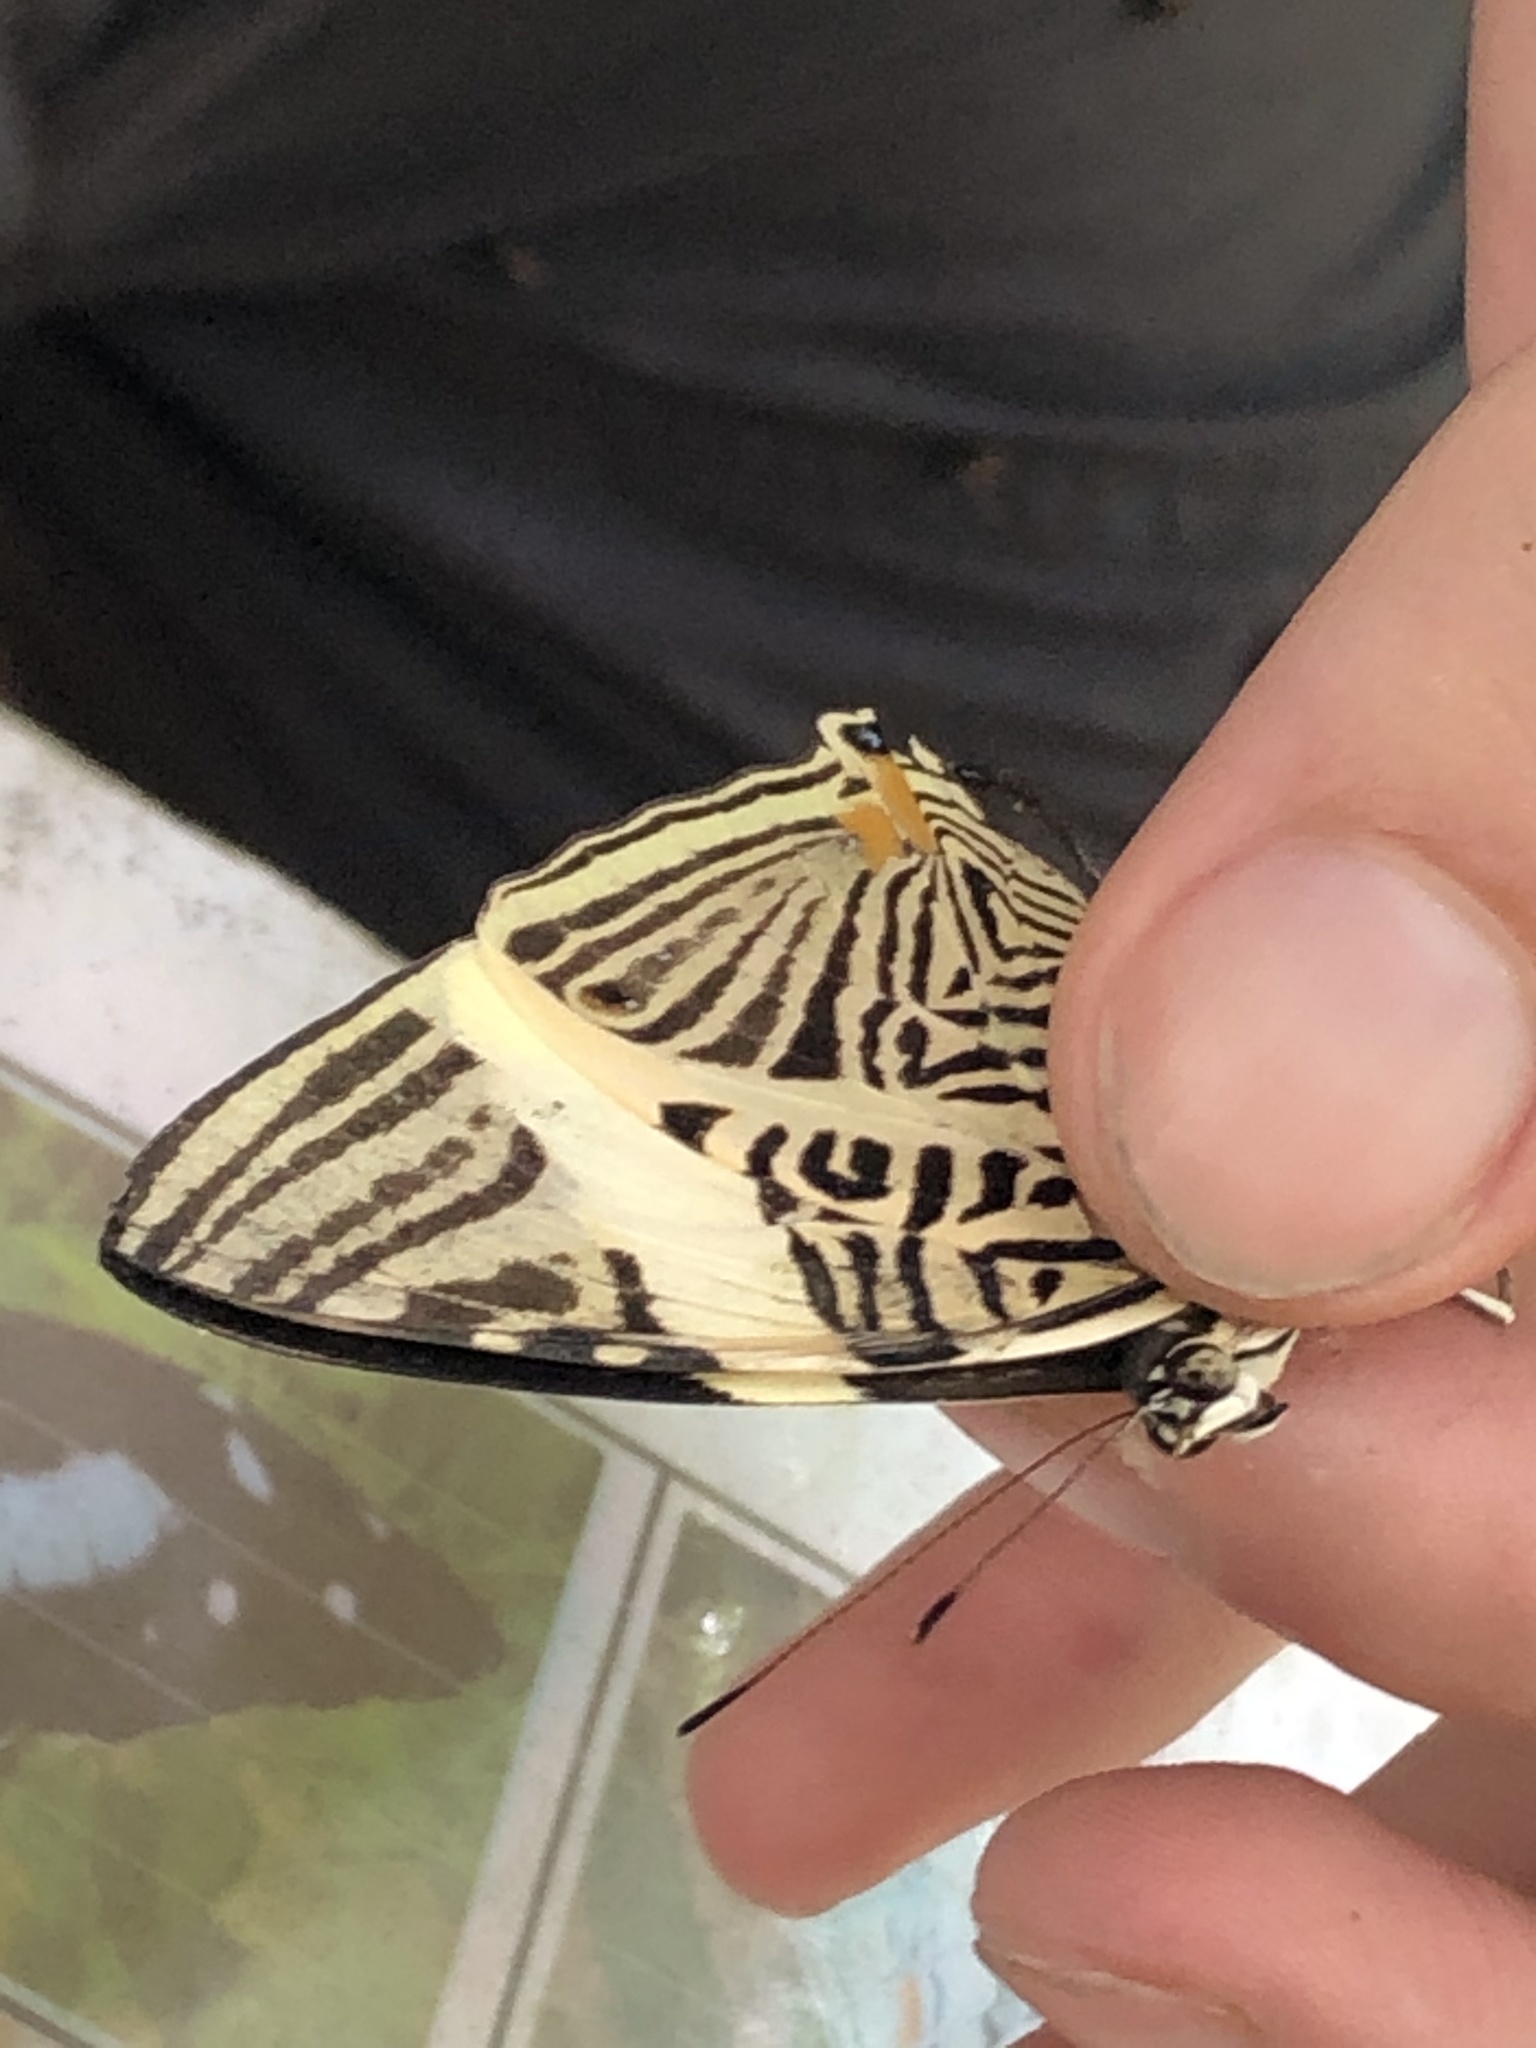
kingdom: Animalia
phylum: Arthropoda
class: Insecta
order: Lepidoptera
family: Nymphalidae
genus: Colobura
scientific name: Colobura annulata
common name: New beauty
